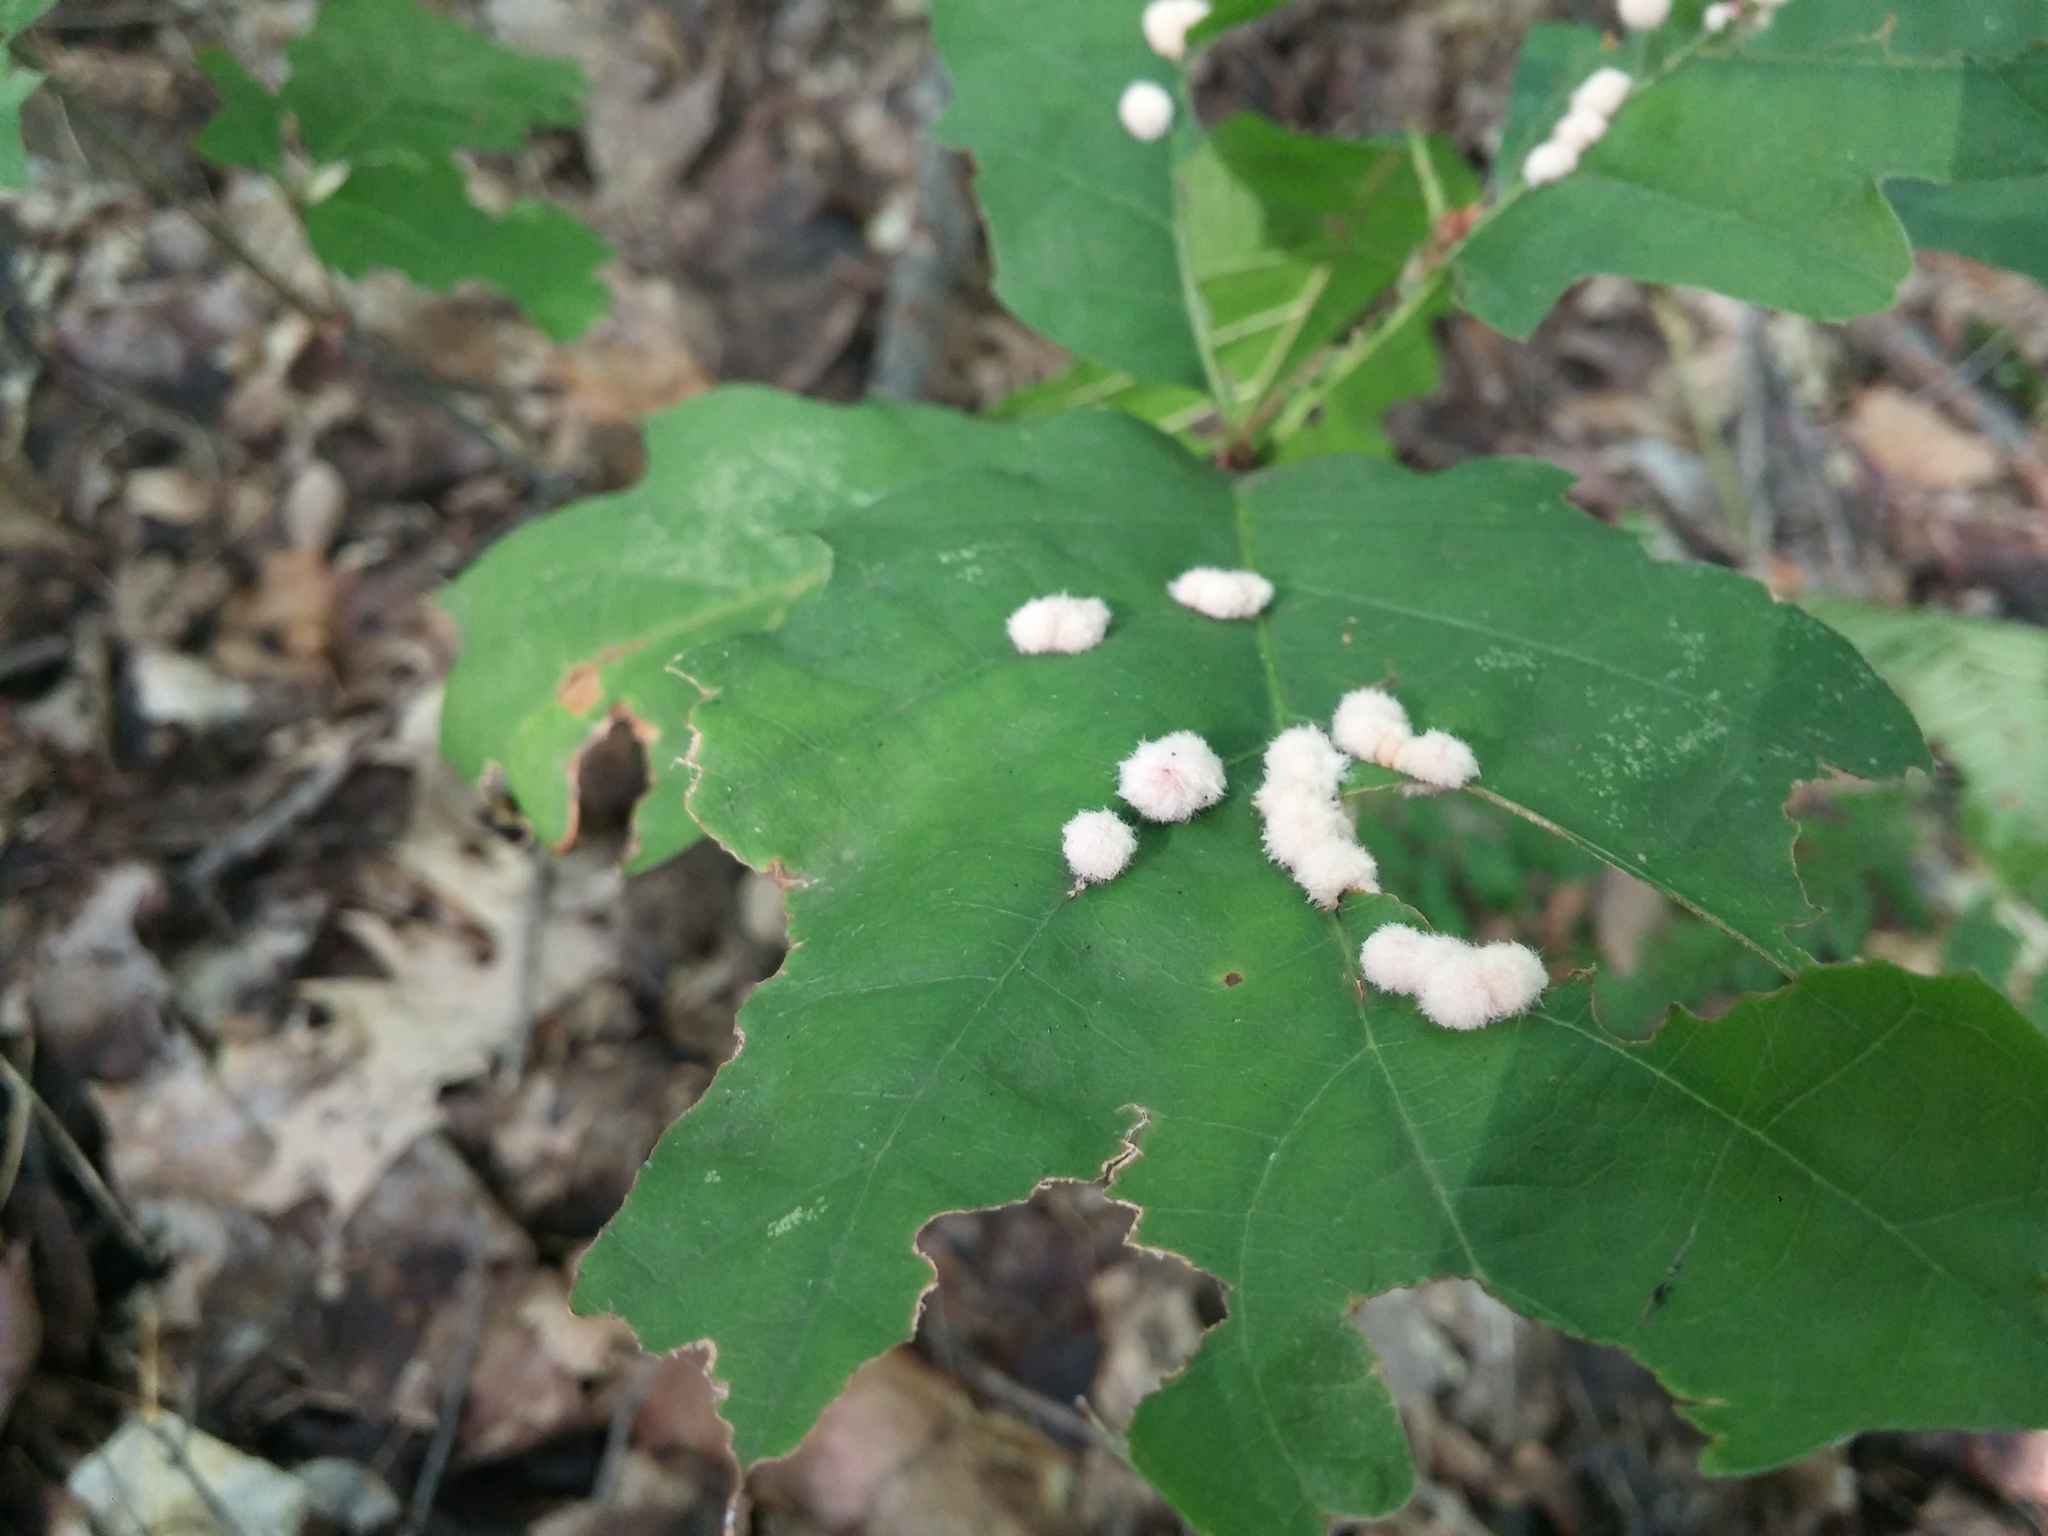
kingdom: Animalia
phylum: Arthropoda
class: Insecta
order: Hymenoptera
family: Cynipidae
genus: Callirhytis
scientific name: Callirhytis
